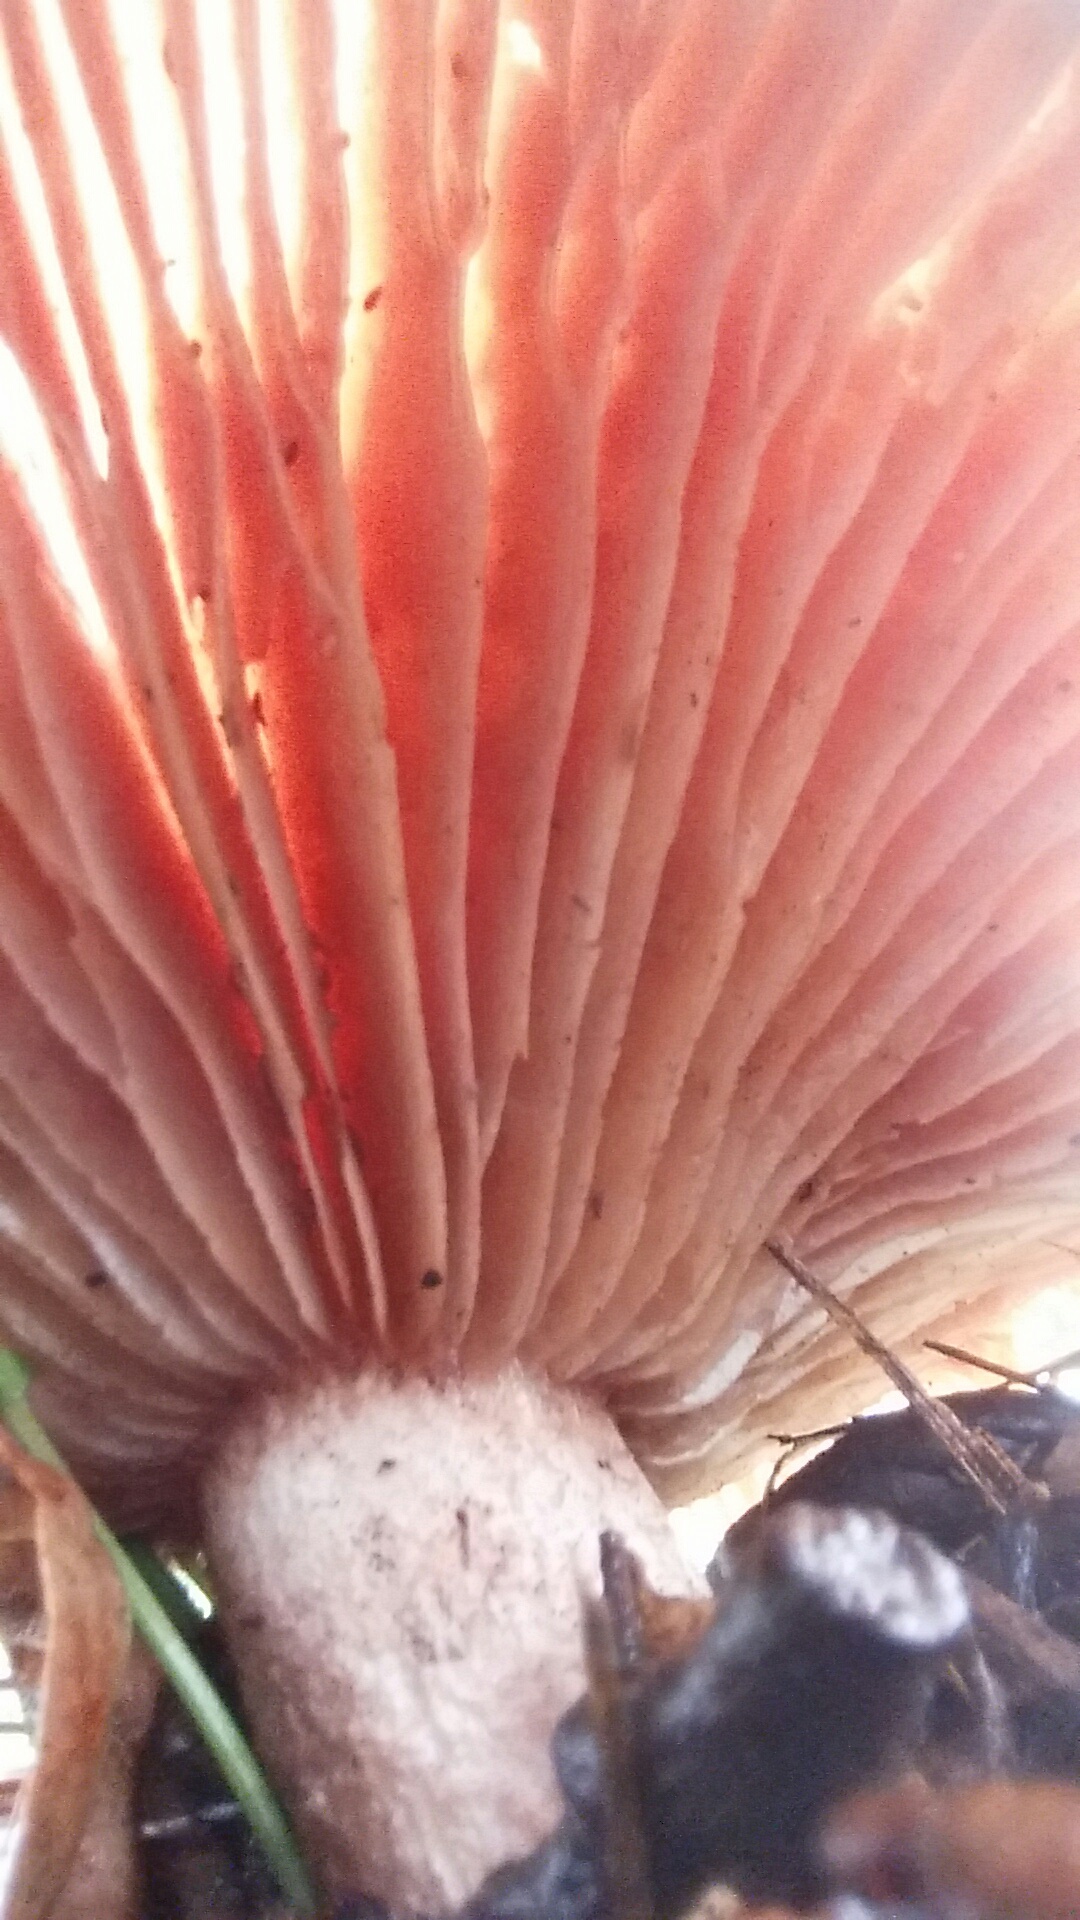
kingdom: Fungi
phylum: Basidiomycota
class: Agaricomycetes
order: Agaricales
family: Tricholomataceae
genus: Collybia
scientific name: Collybia
